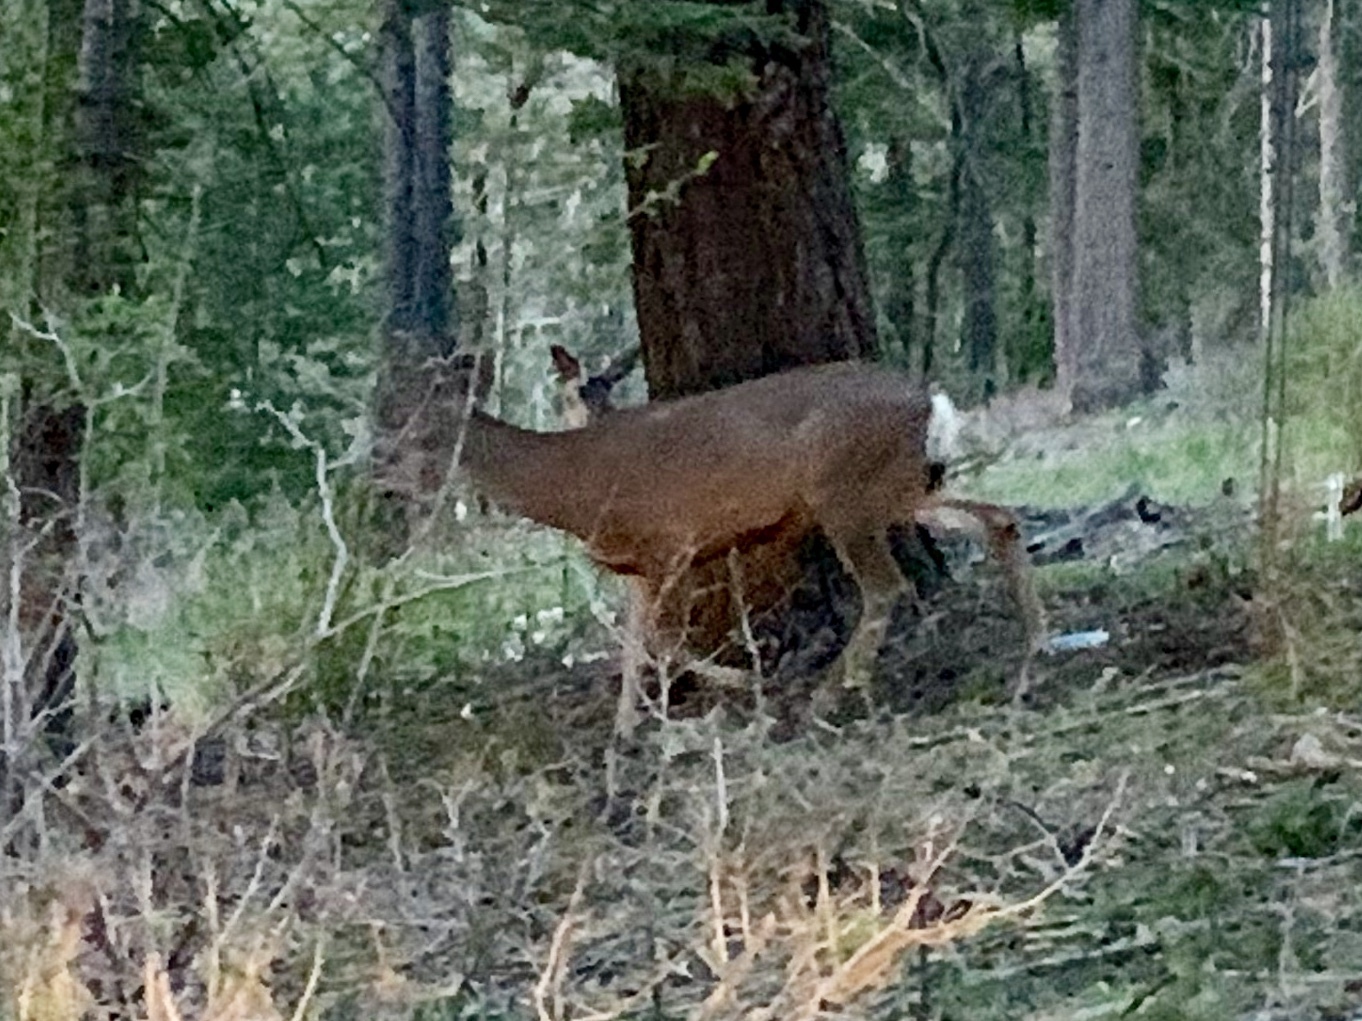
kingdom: Animalia
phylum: Chordata
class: Mammalia
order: Artiodactyla
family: Cervidae
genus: Odocoileus
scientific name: Odocoileus hemionus
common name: Mule deer
